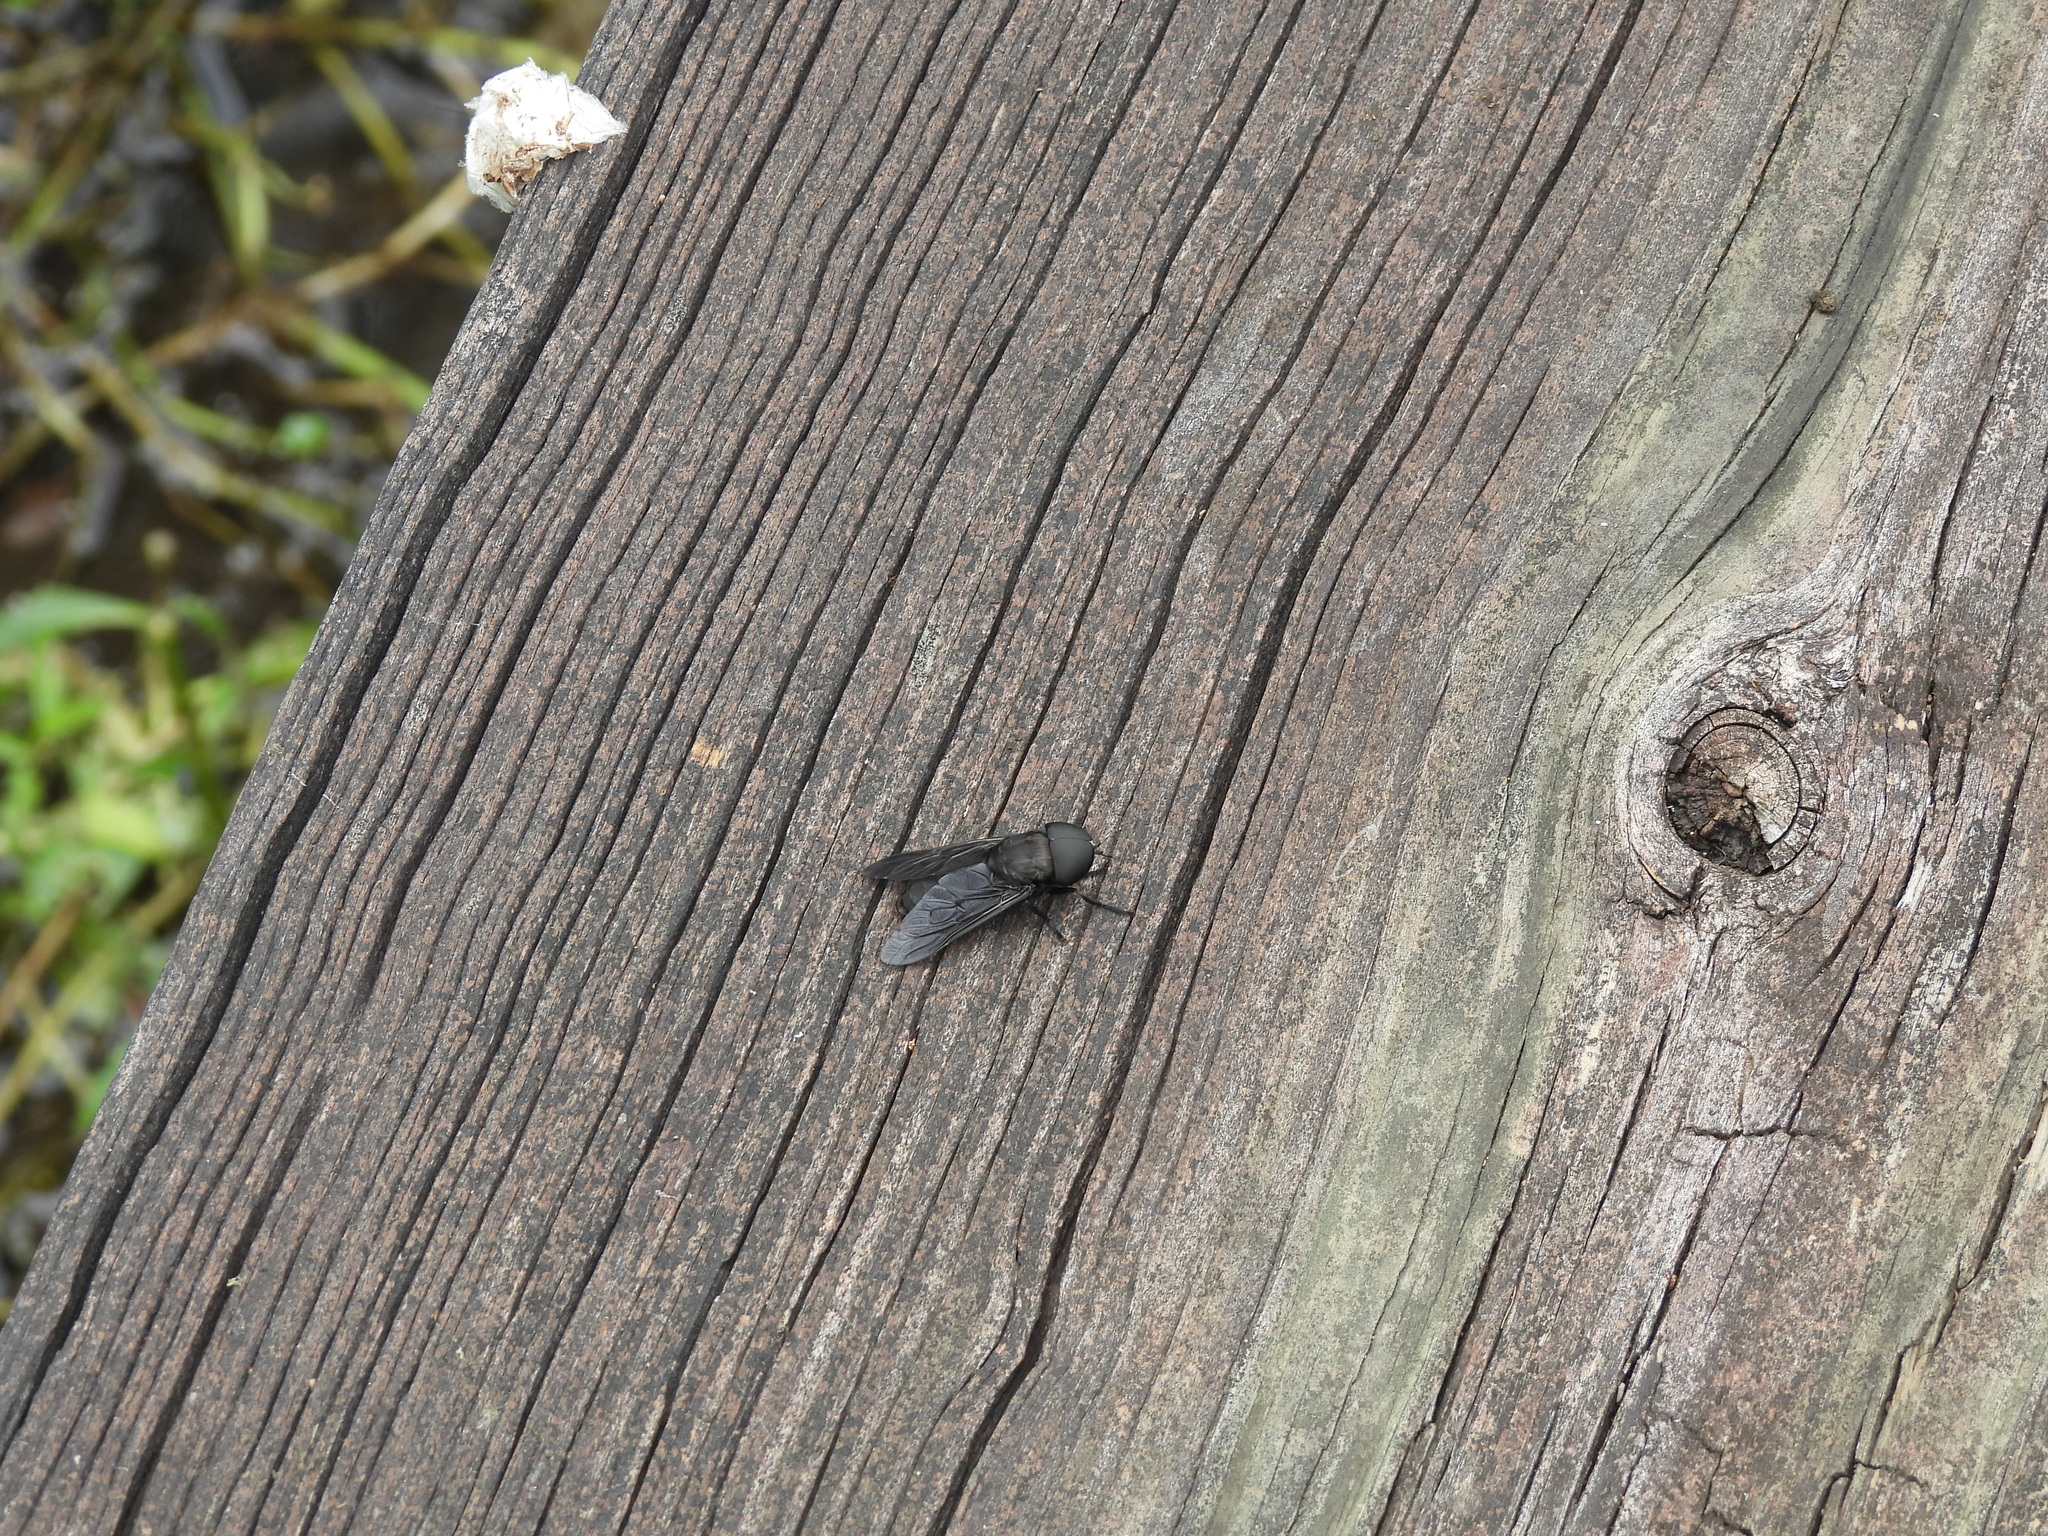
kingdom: Animalia
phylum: Arthropoda
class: Insecta
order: Diptera
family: Tabanidae
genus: Tabanus
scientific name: Tabanus atratus
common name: Black horse fly
